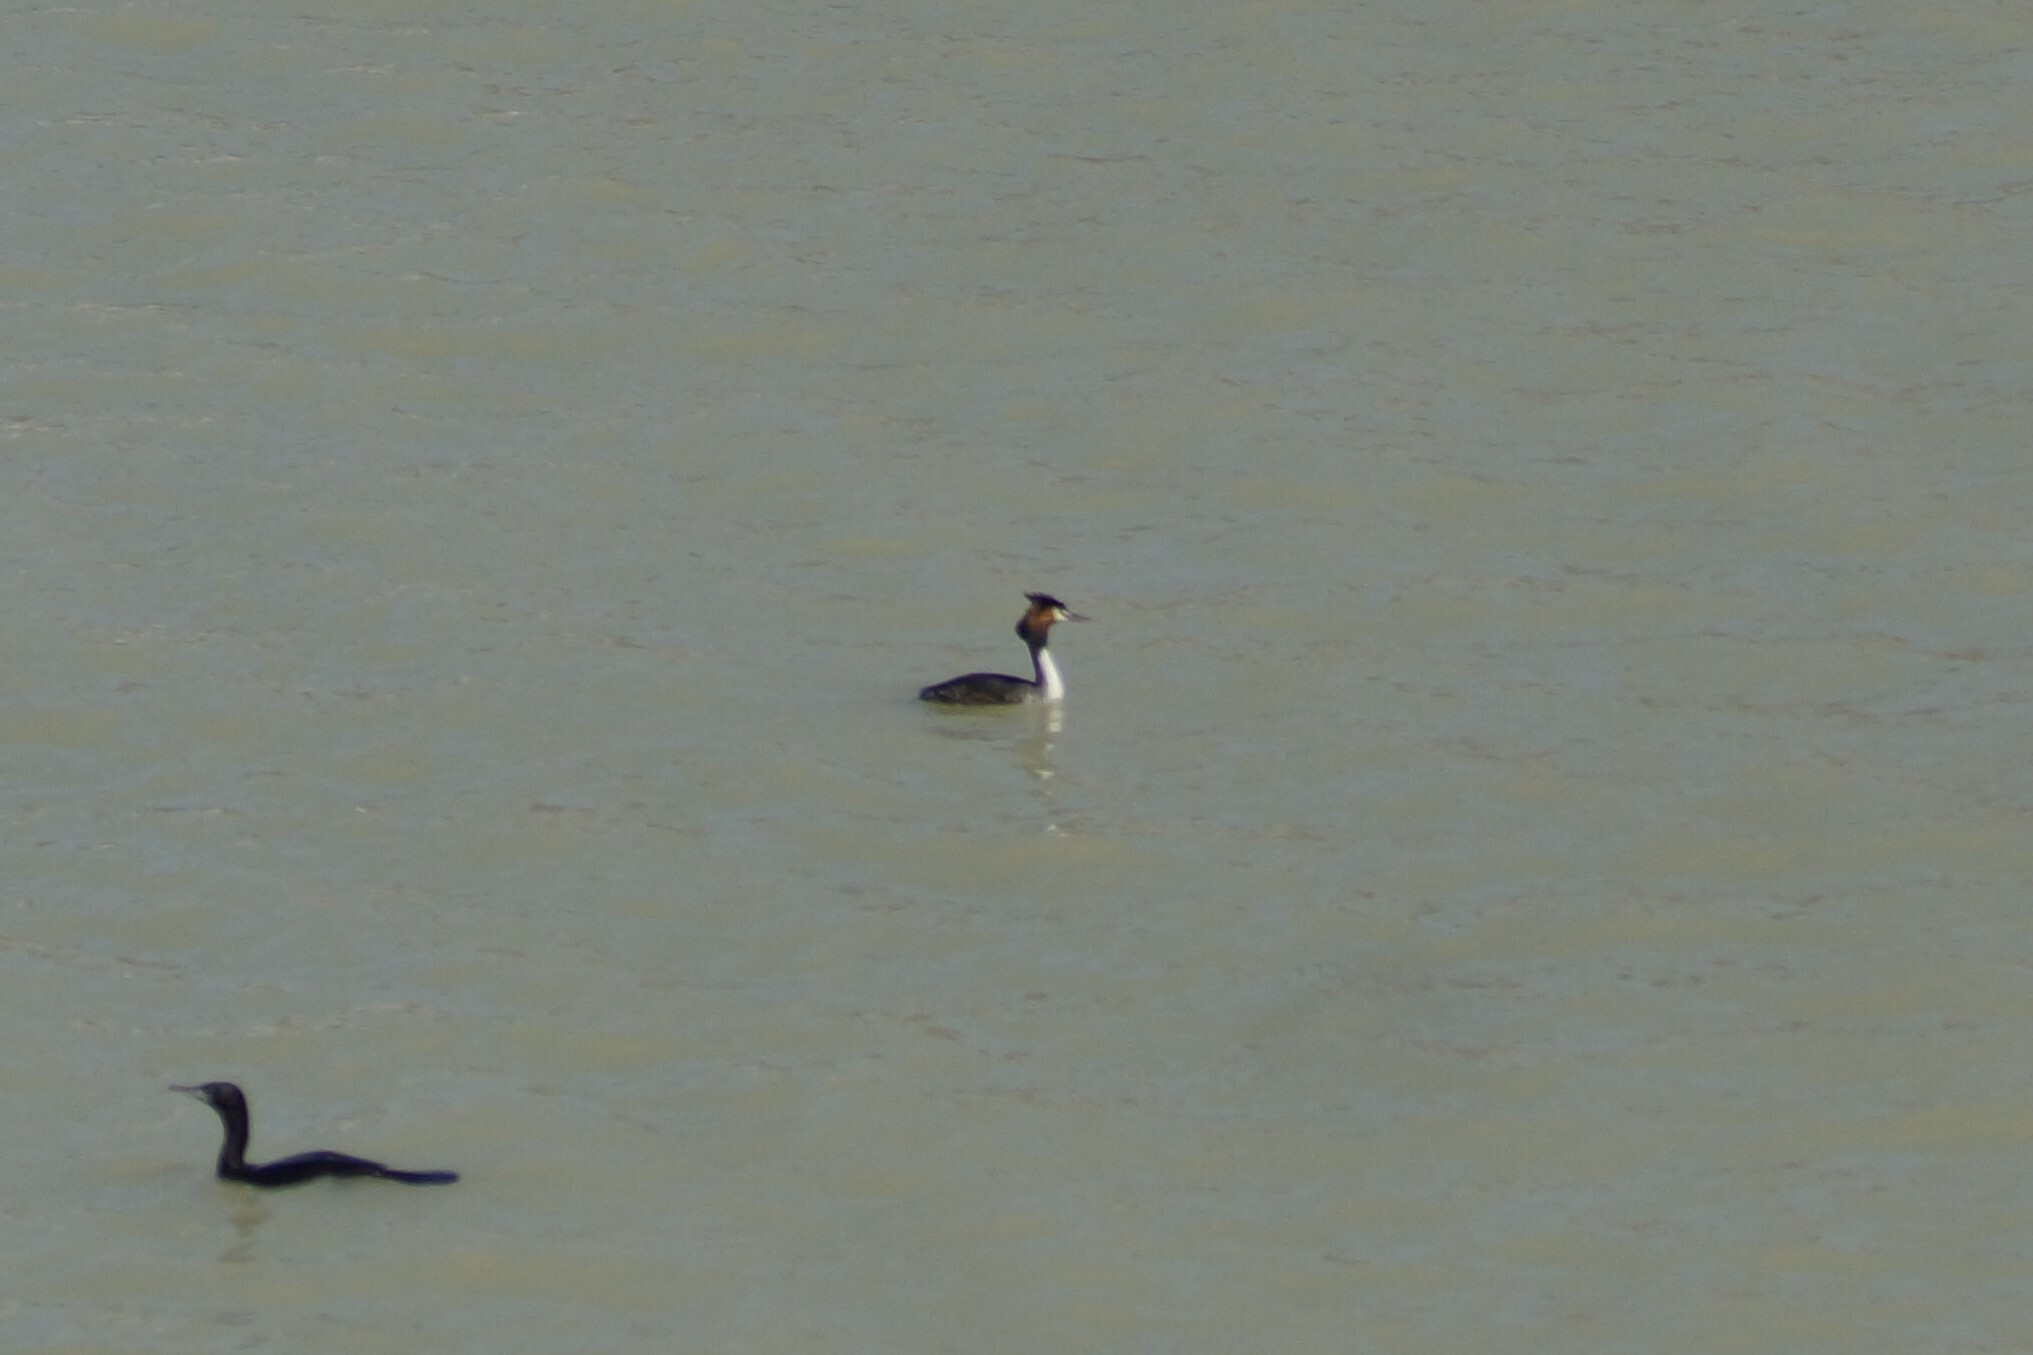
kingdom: Animalia
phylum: Chordata
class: Aves
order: Podicipediformes
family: Podicipedidae
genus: Podiceps
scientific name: Podiceps cristatus
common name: Great crested grebe
